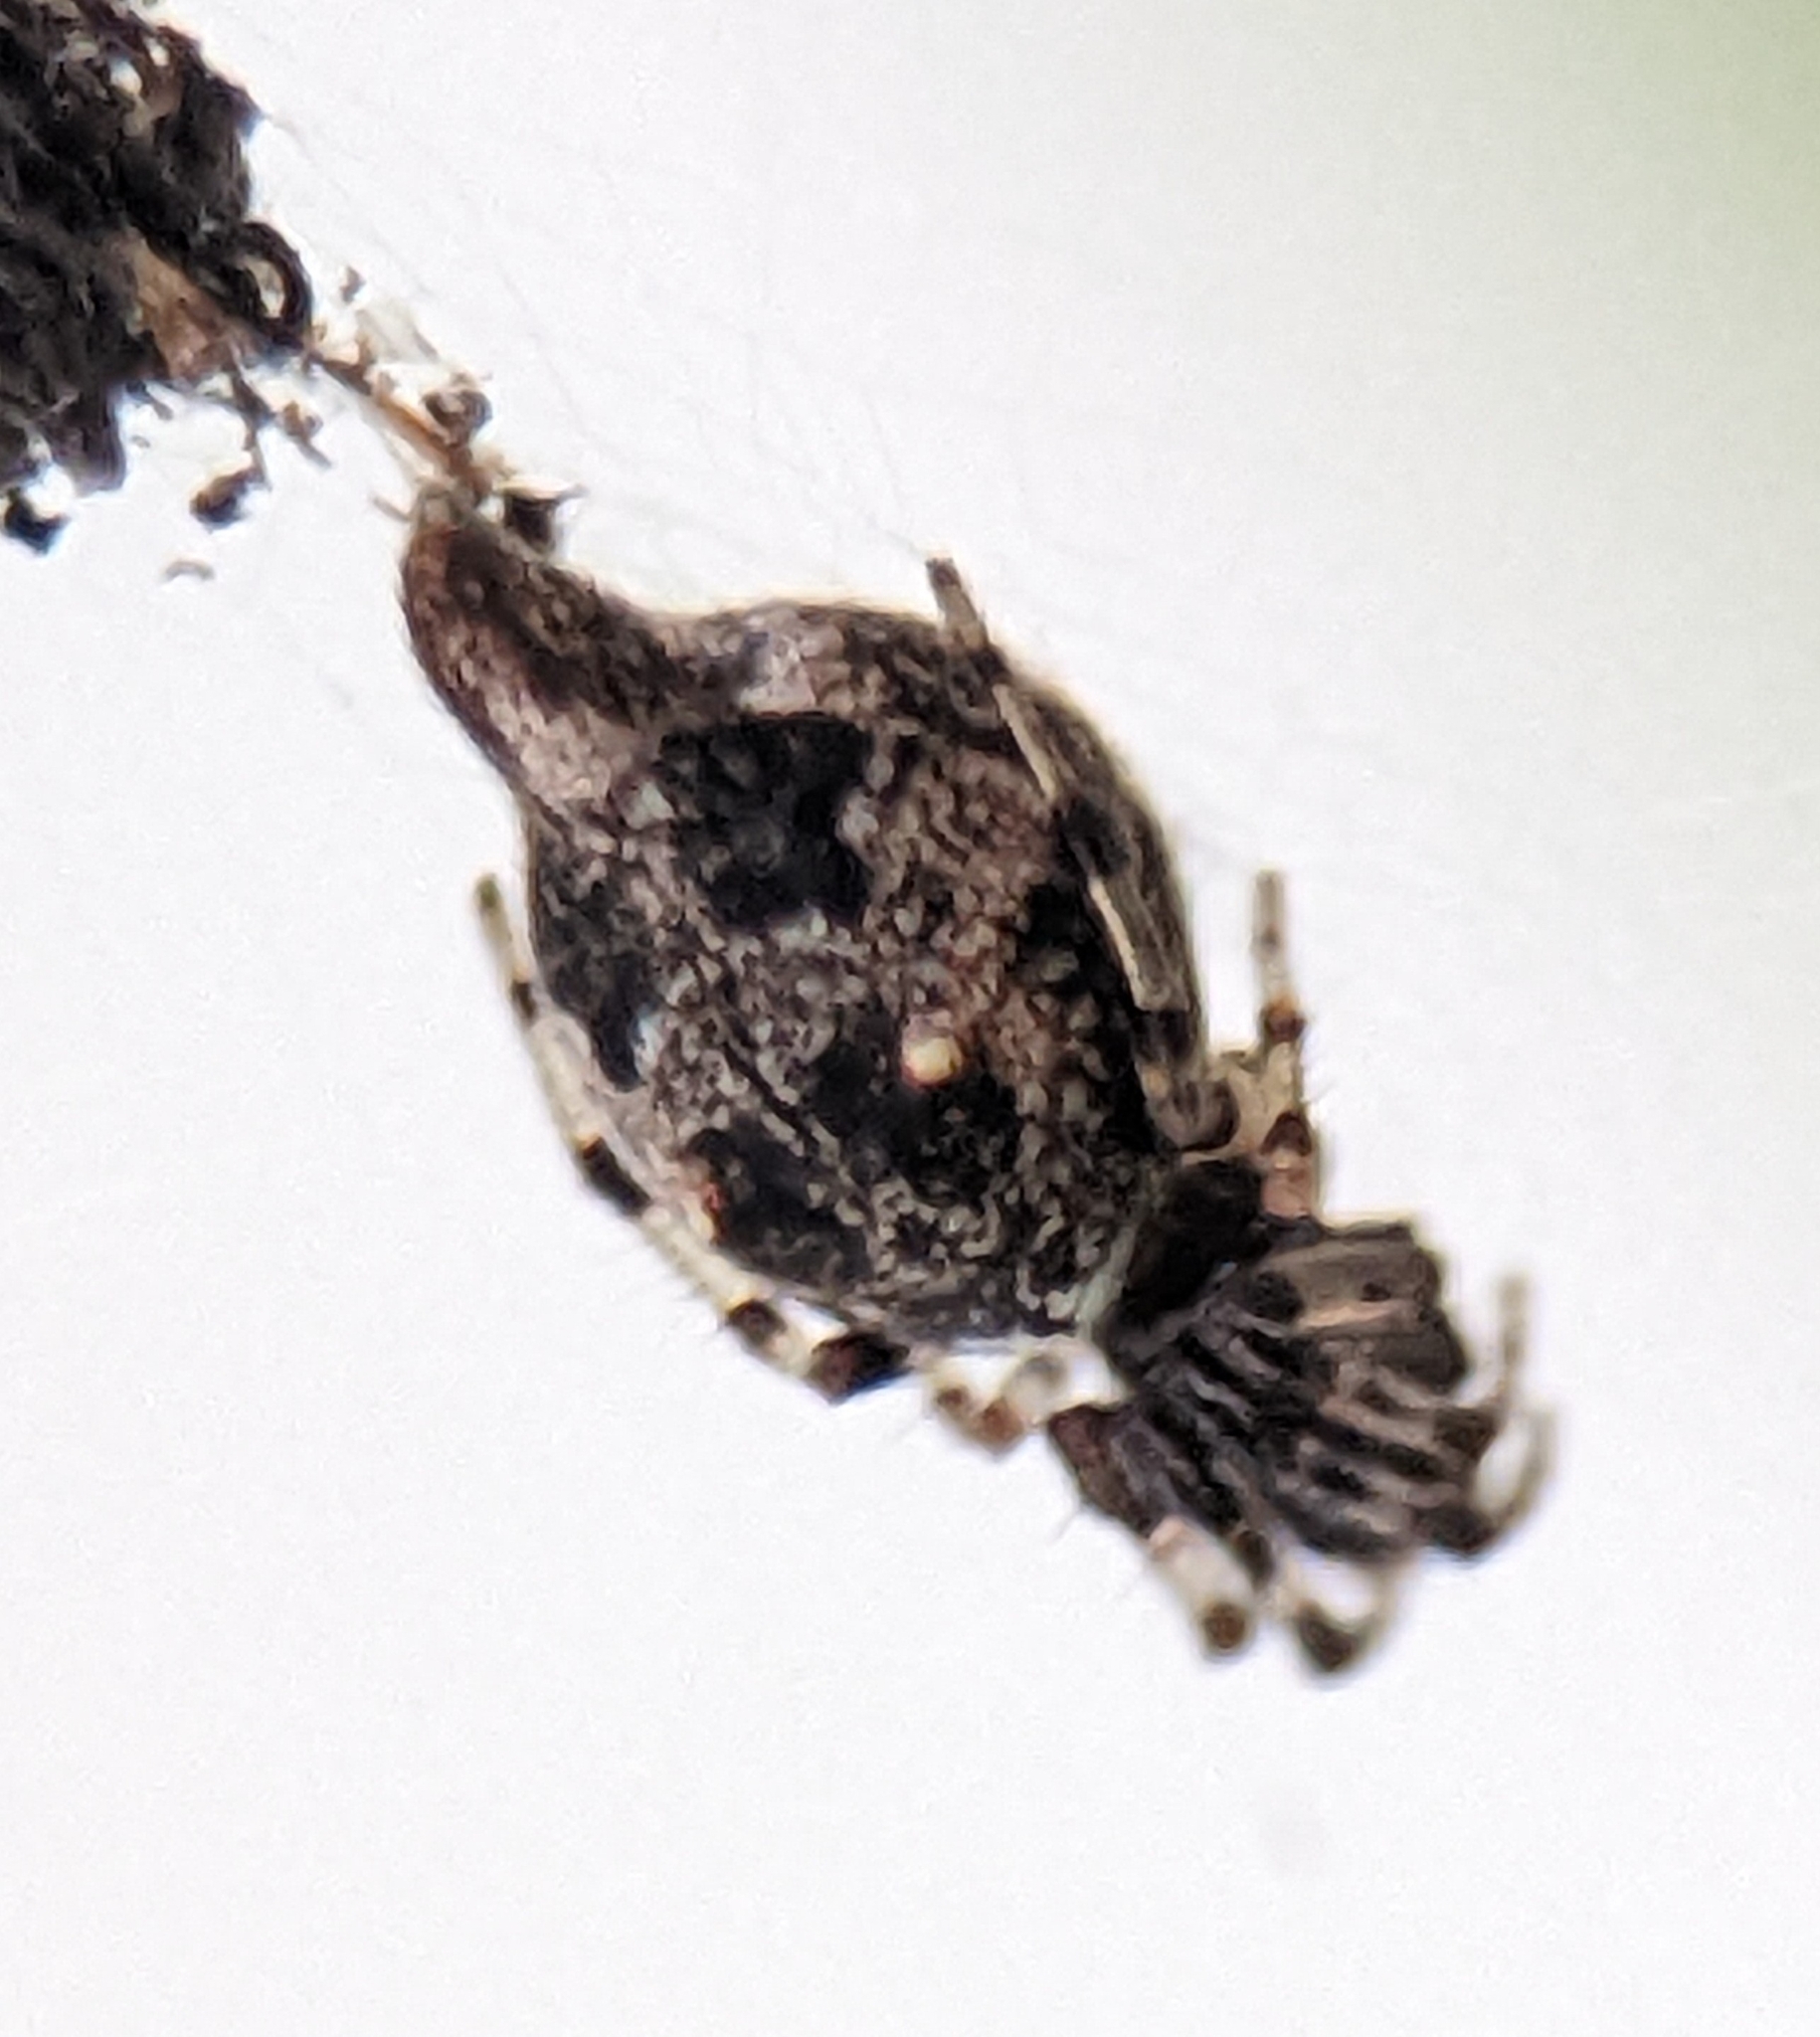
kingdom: Animalia
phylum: Arthropoda
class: Arachnida
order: Araneae
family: Araneidae
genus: Cyclosa
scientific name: Cyclosa turbinata
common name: Orb weavers
